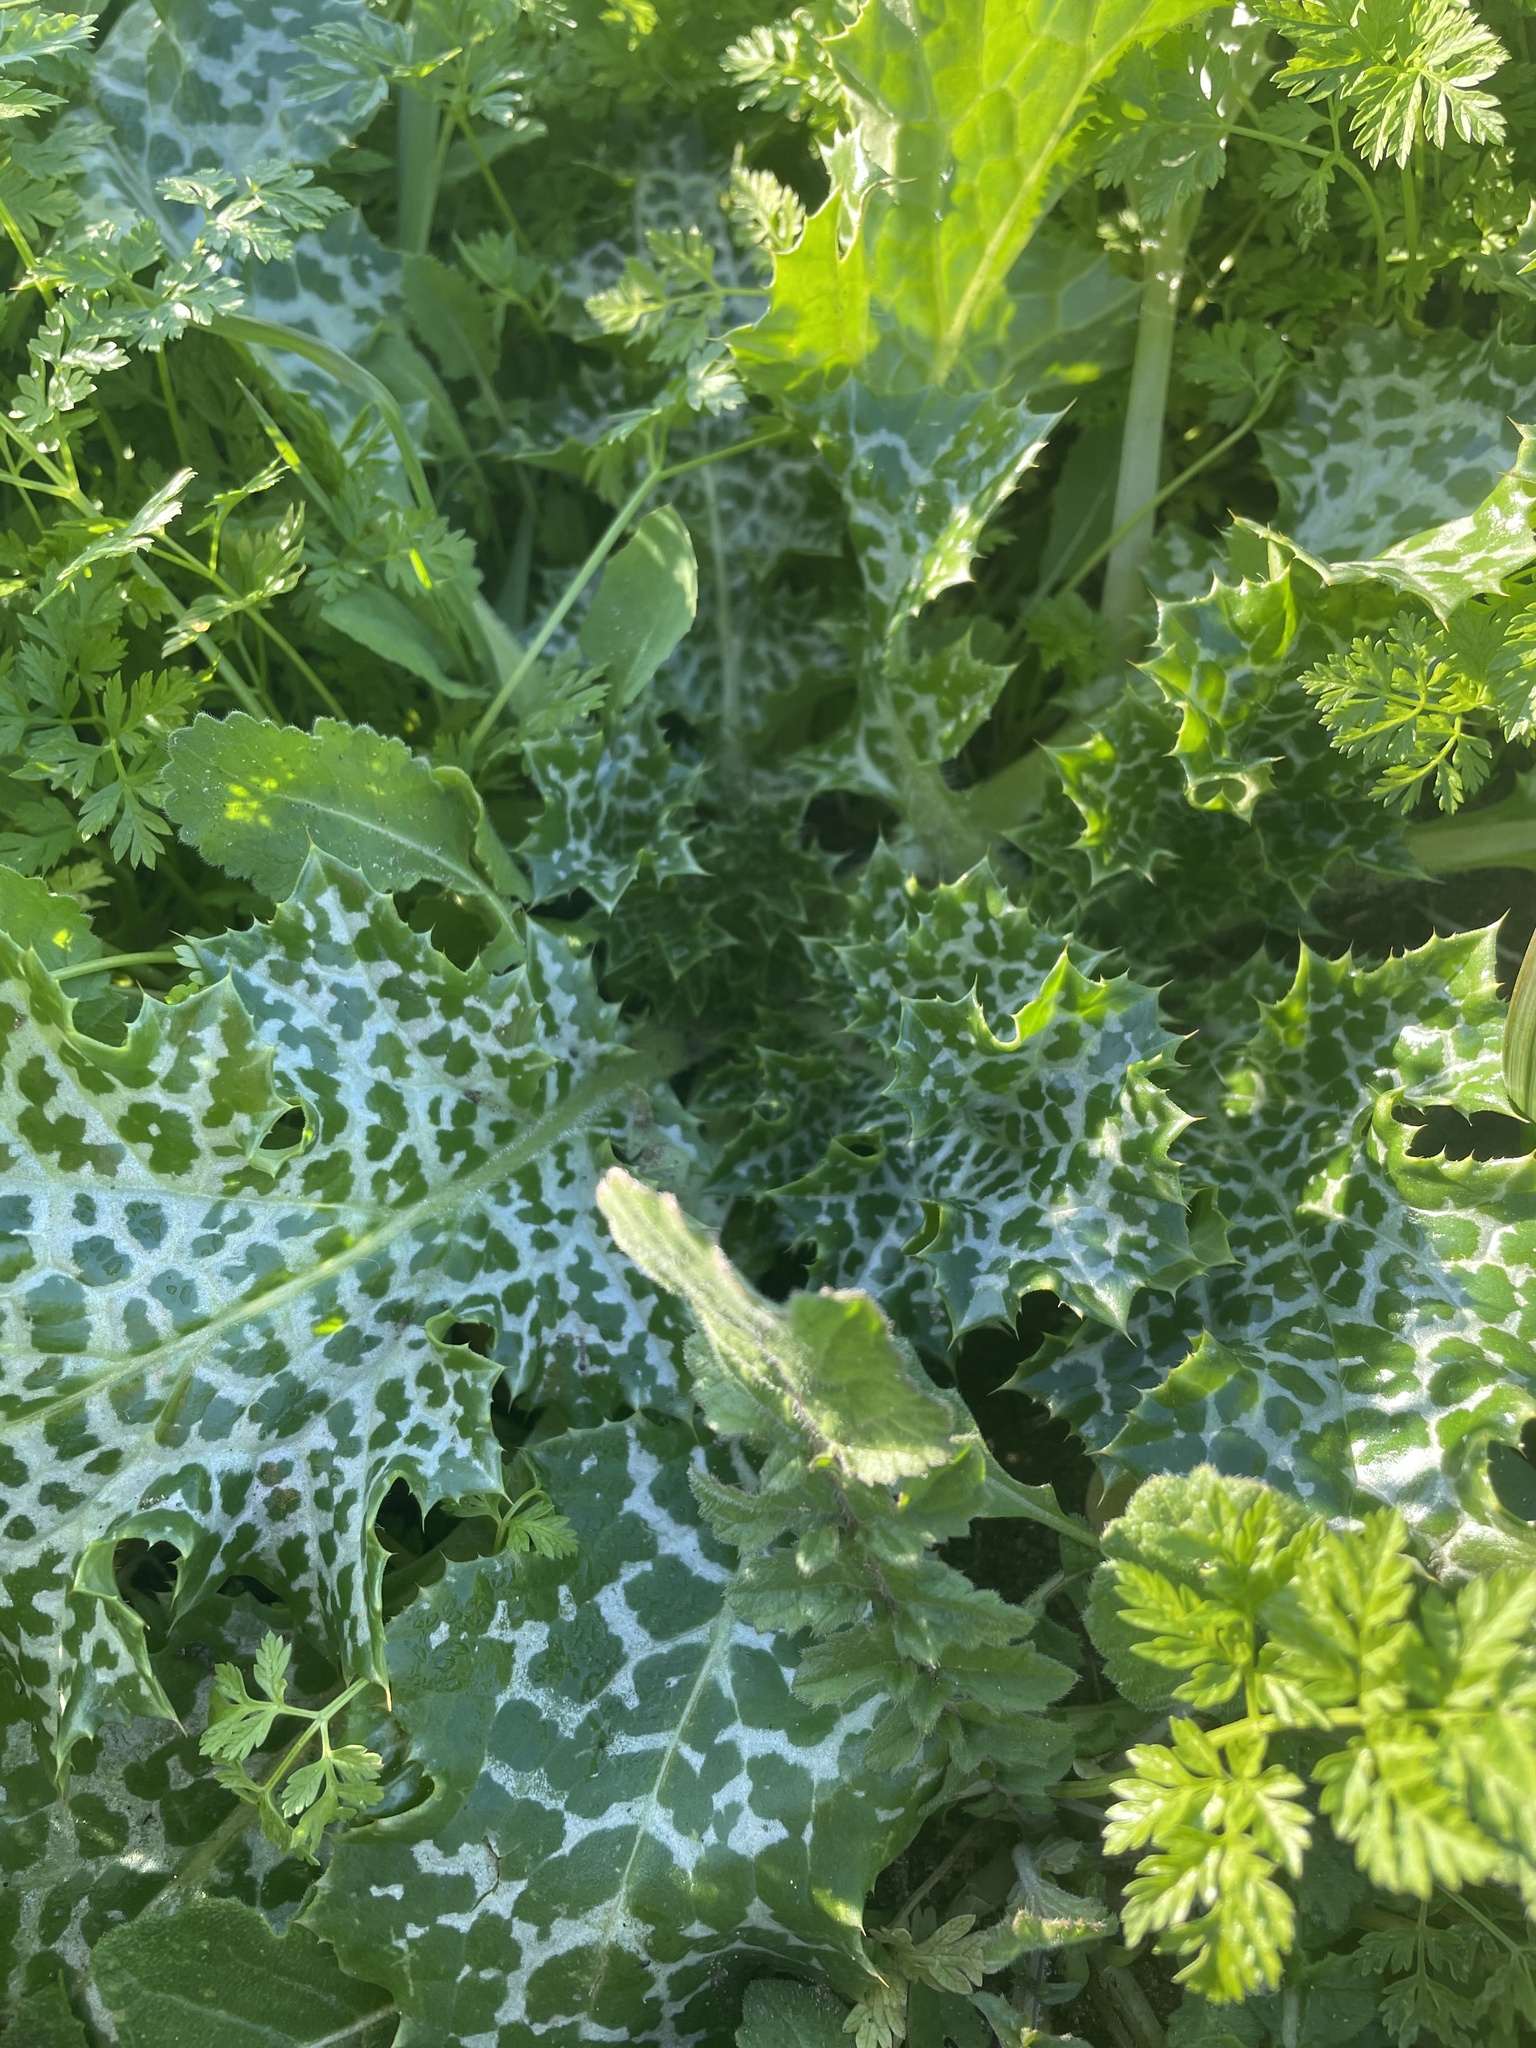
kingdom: Plantae
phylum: Tracheophyta
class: Magnoliopsida
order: Asterales
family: Asteraceae
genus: Silybum
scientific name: Silybum marianum
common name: Milk thistle
